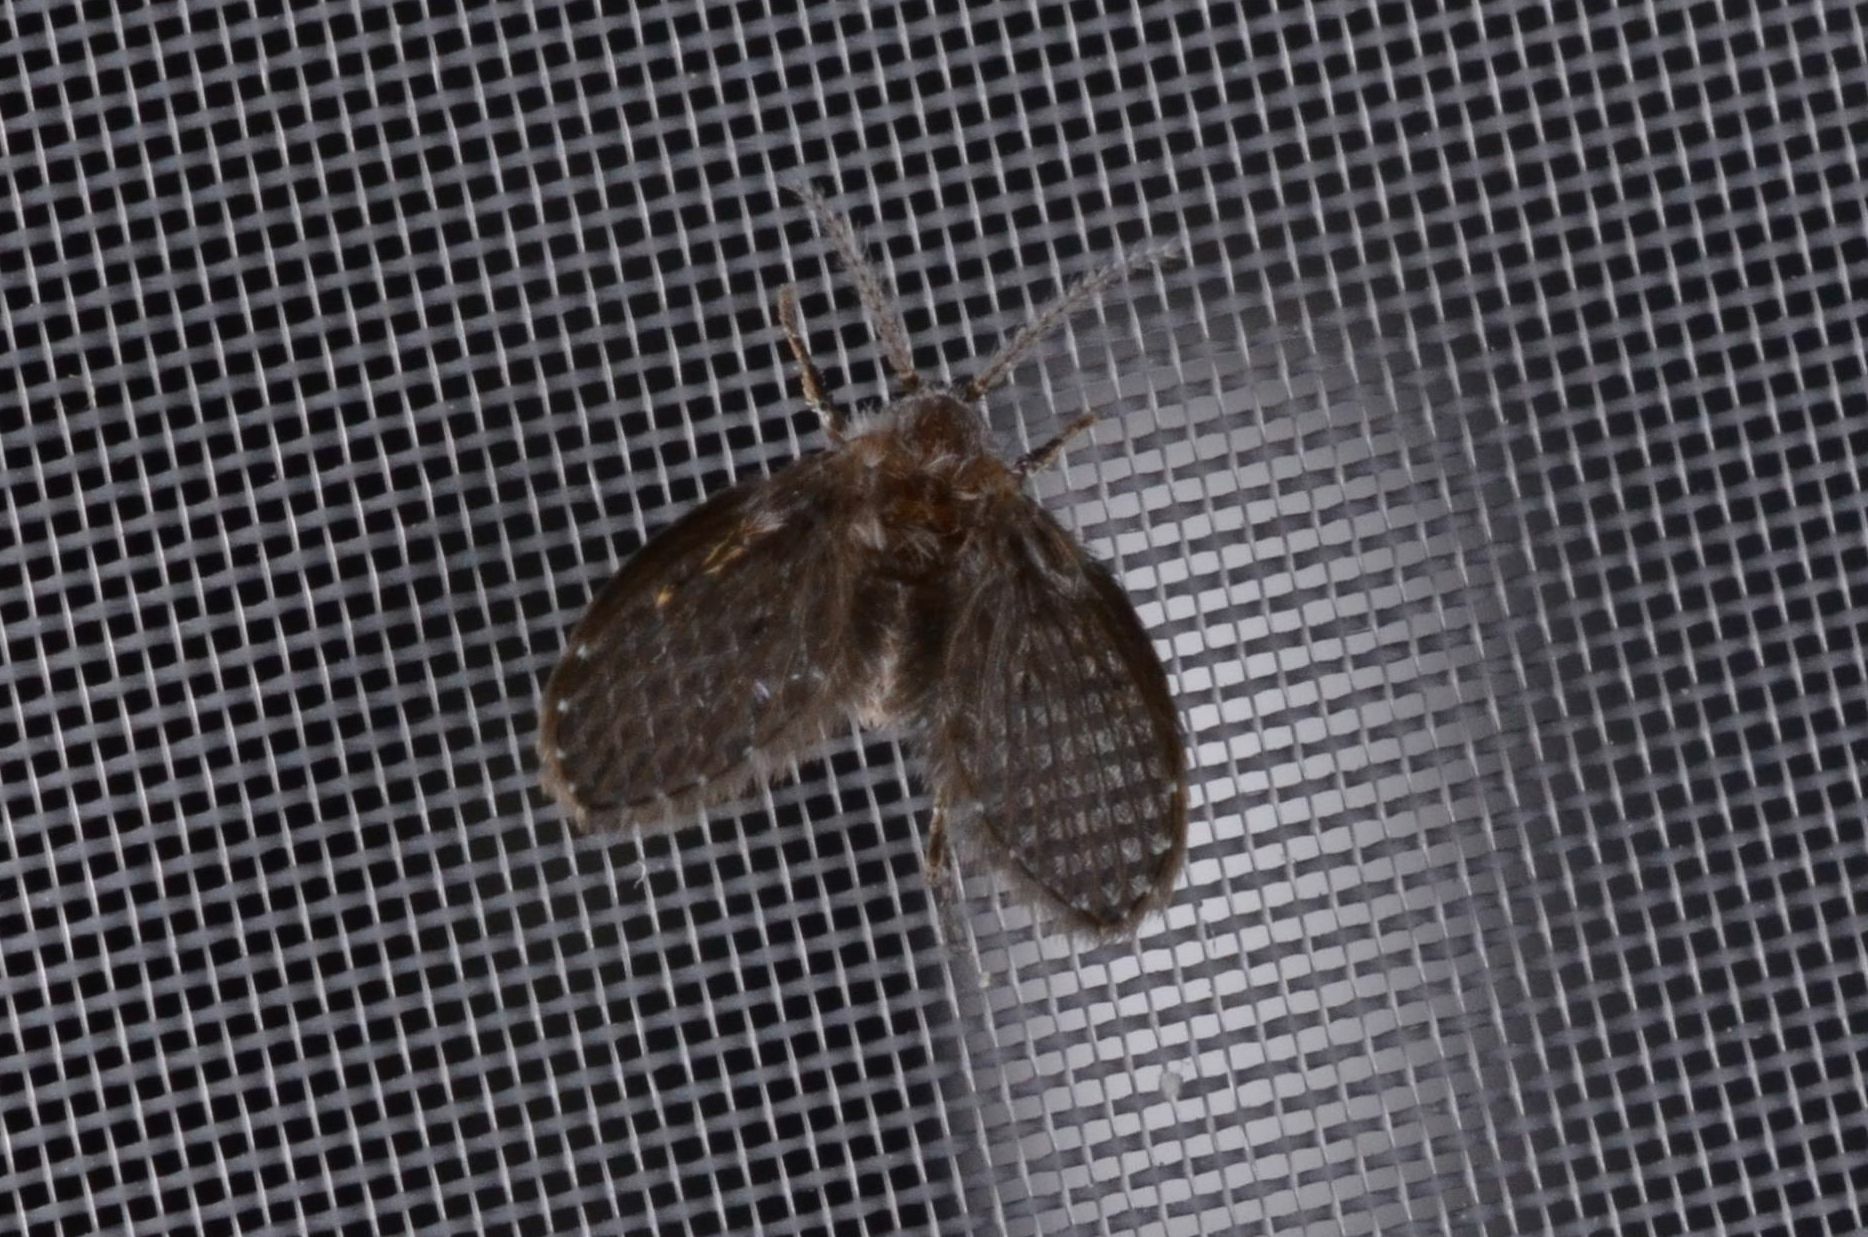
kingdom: Animalia
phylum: Arthropoda
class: Insecta
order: Diptera
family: Psychodidae
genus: Clogmia
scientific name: Clogmia albipunctatus
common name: White-spotted moth fly
